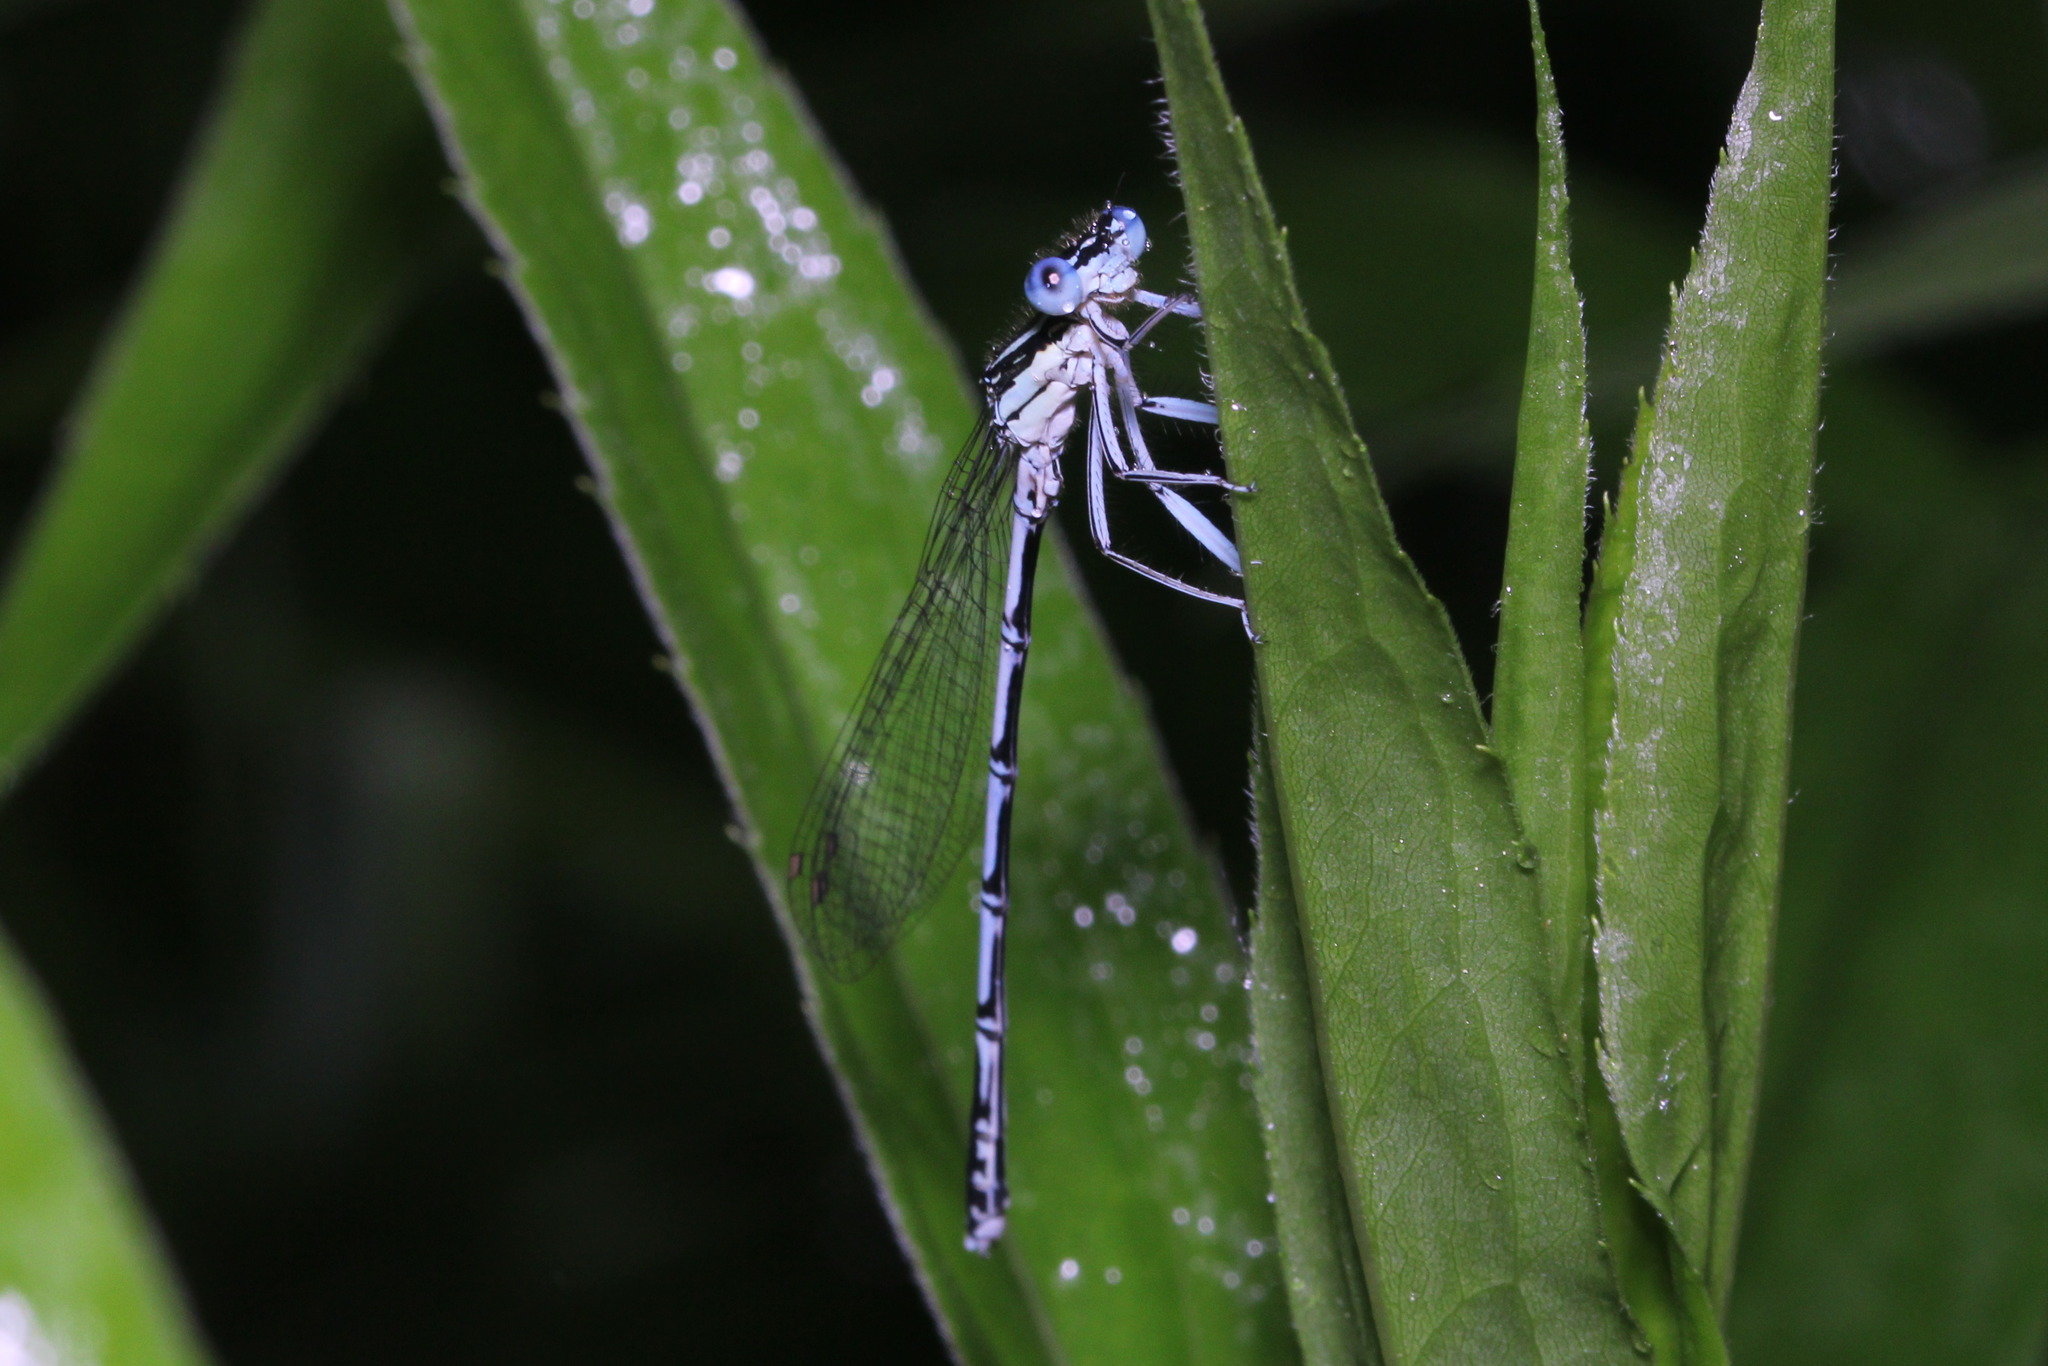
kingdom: Animalia
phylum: Arthropoda
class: Insecta
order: Odonata
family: Platycnemididae
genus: Platycnemis
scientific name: Platycnemis pennipes
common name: White-legged damselfly
